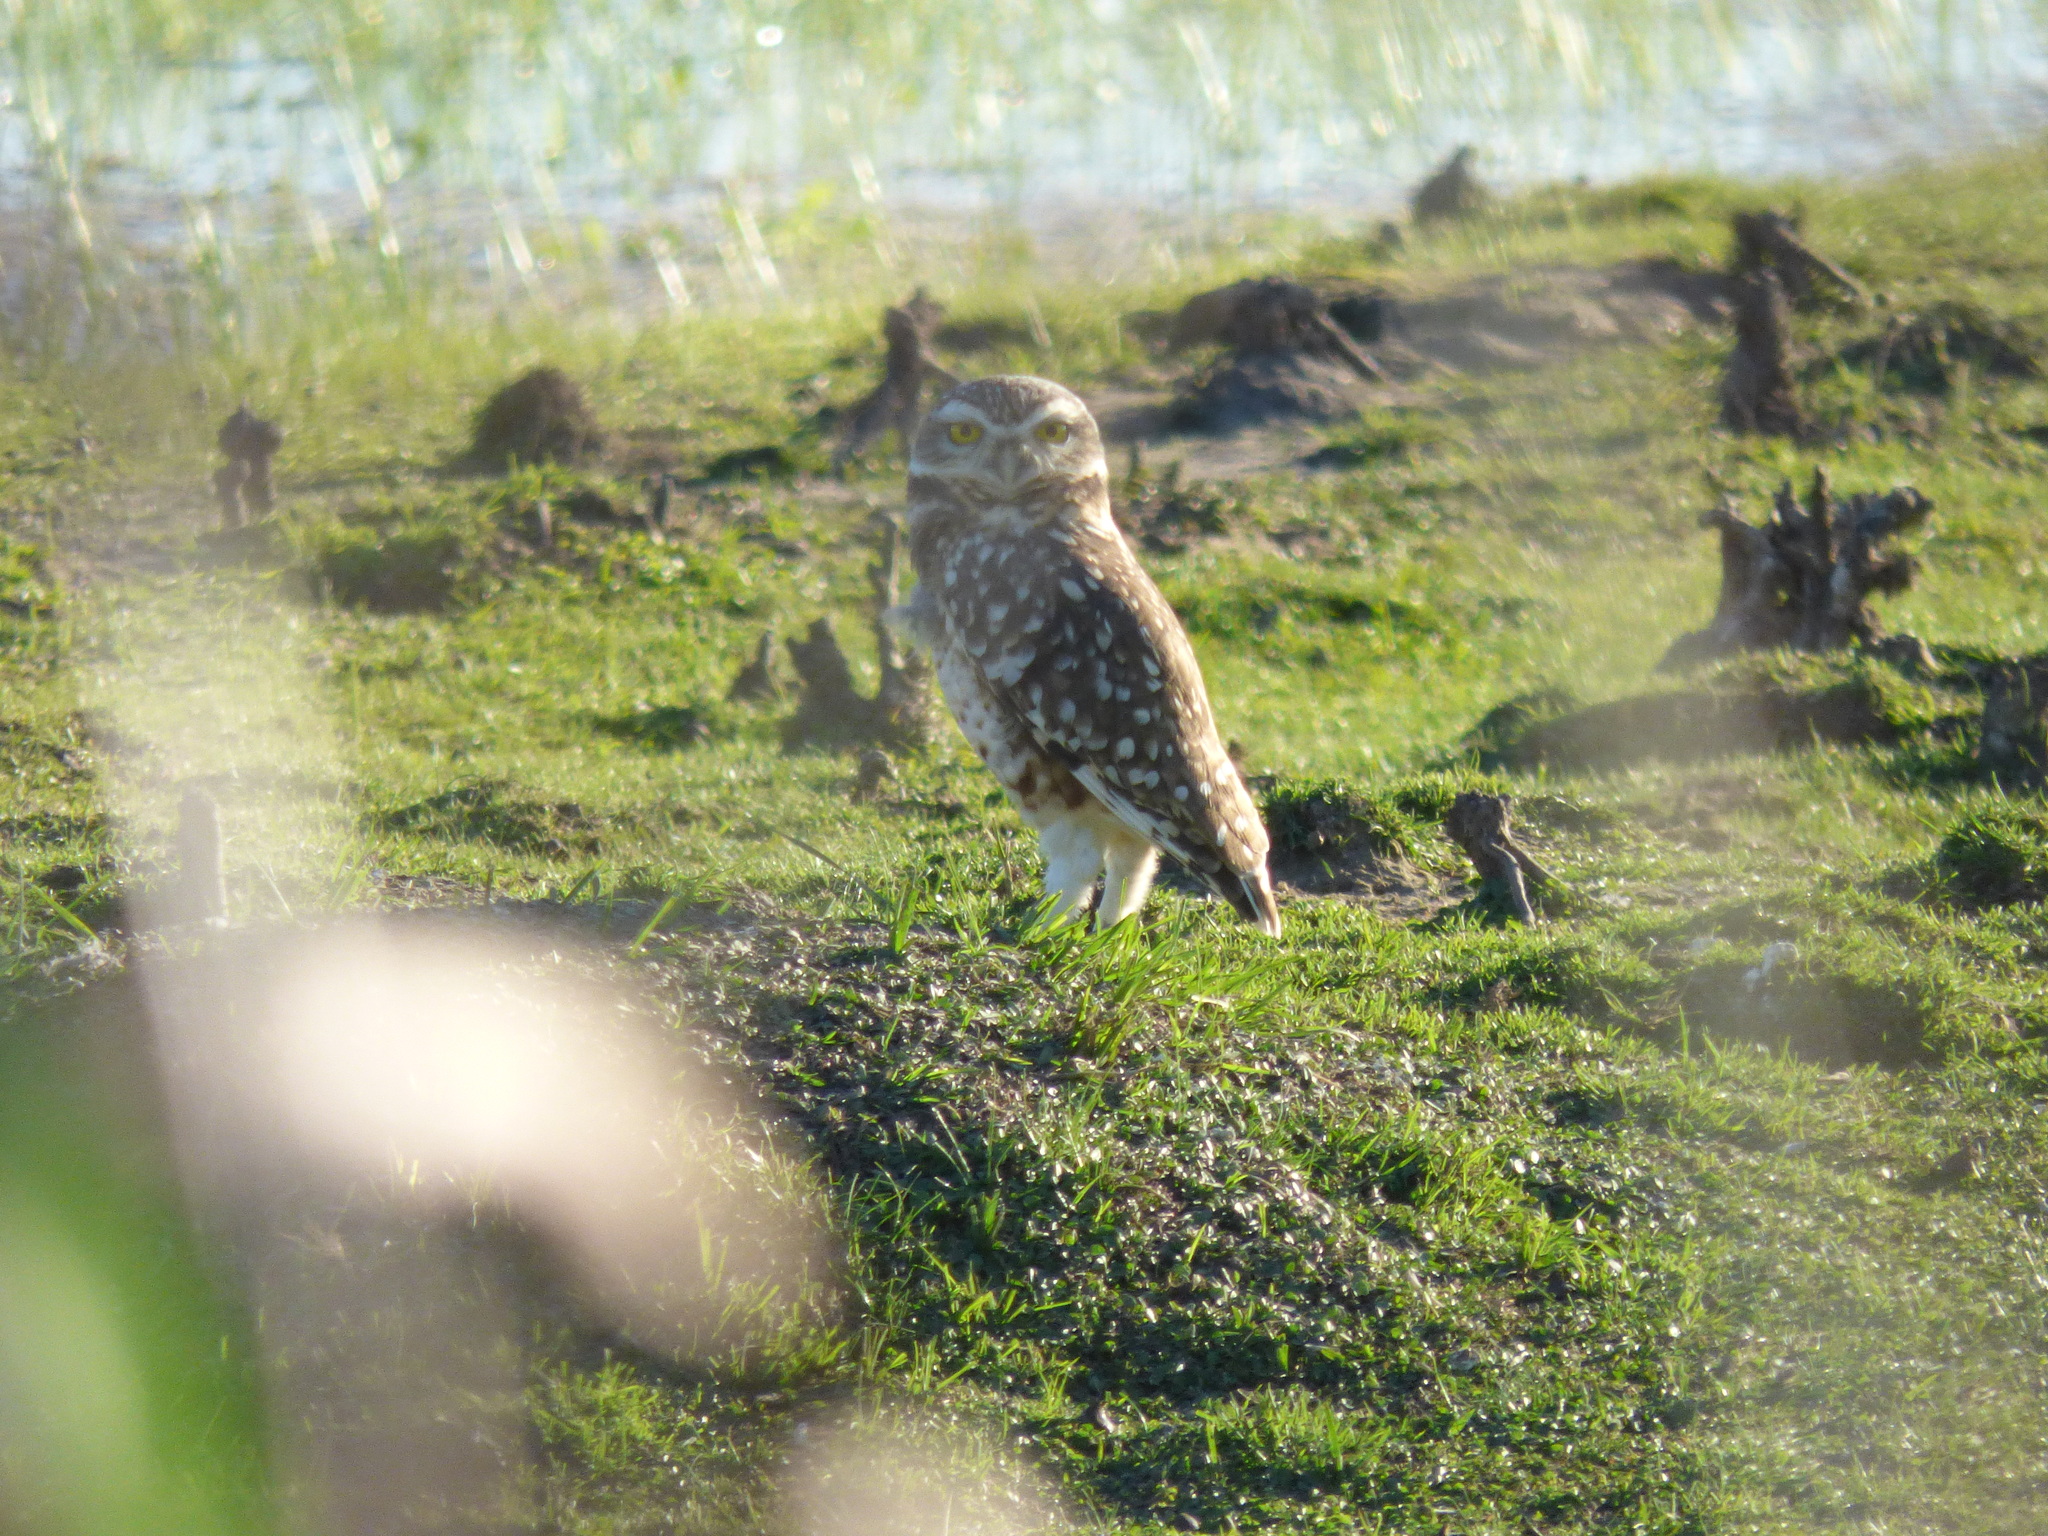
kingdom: Animalia
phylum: Chordata
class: Aves
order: Strigiformes
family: Strigidae
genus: Athene
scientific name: Athene cunicularia
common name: Burrowing owl
